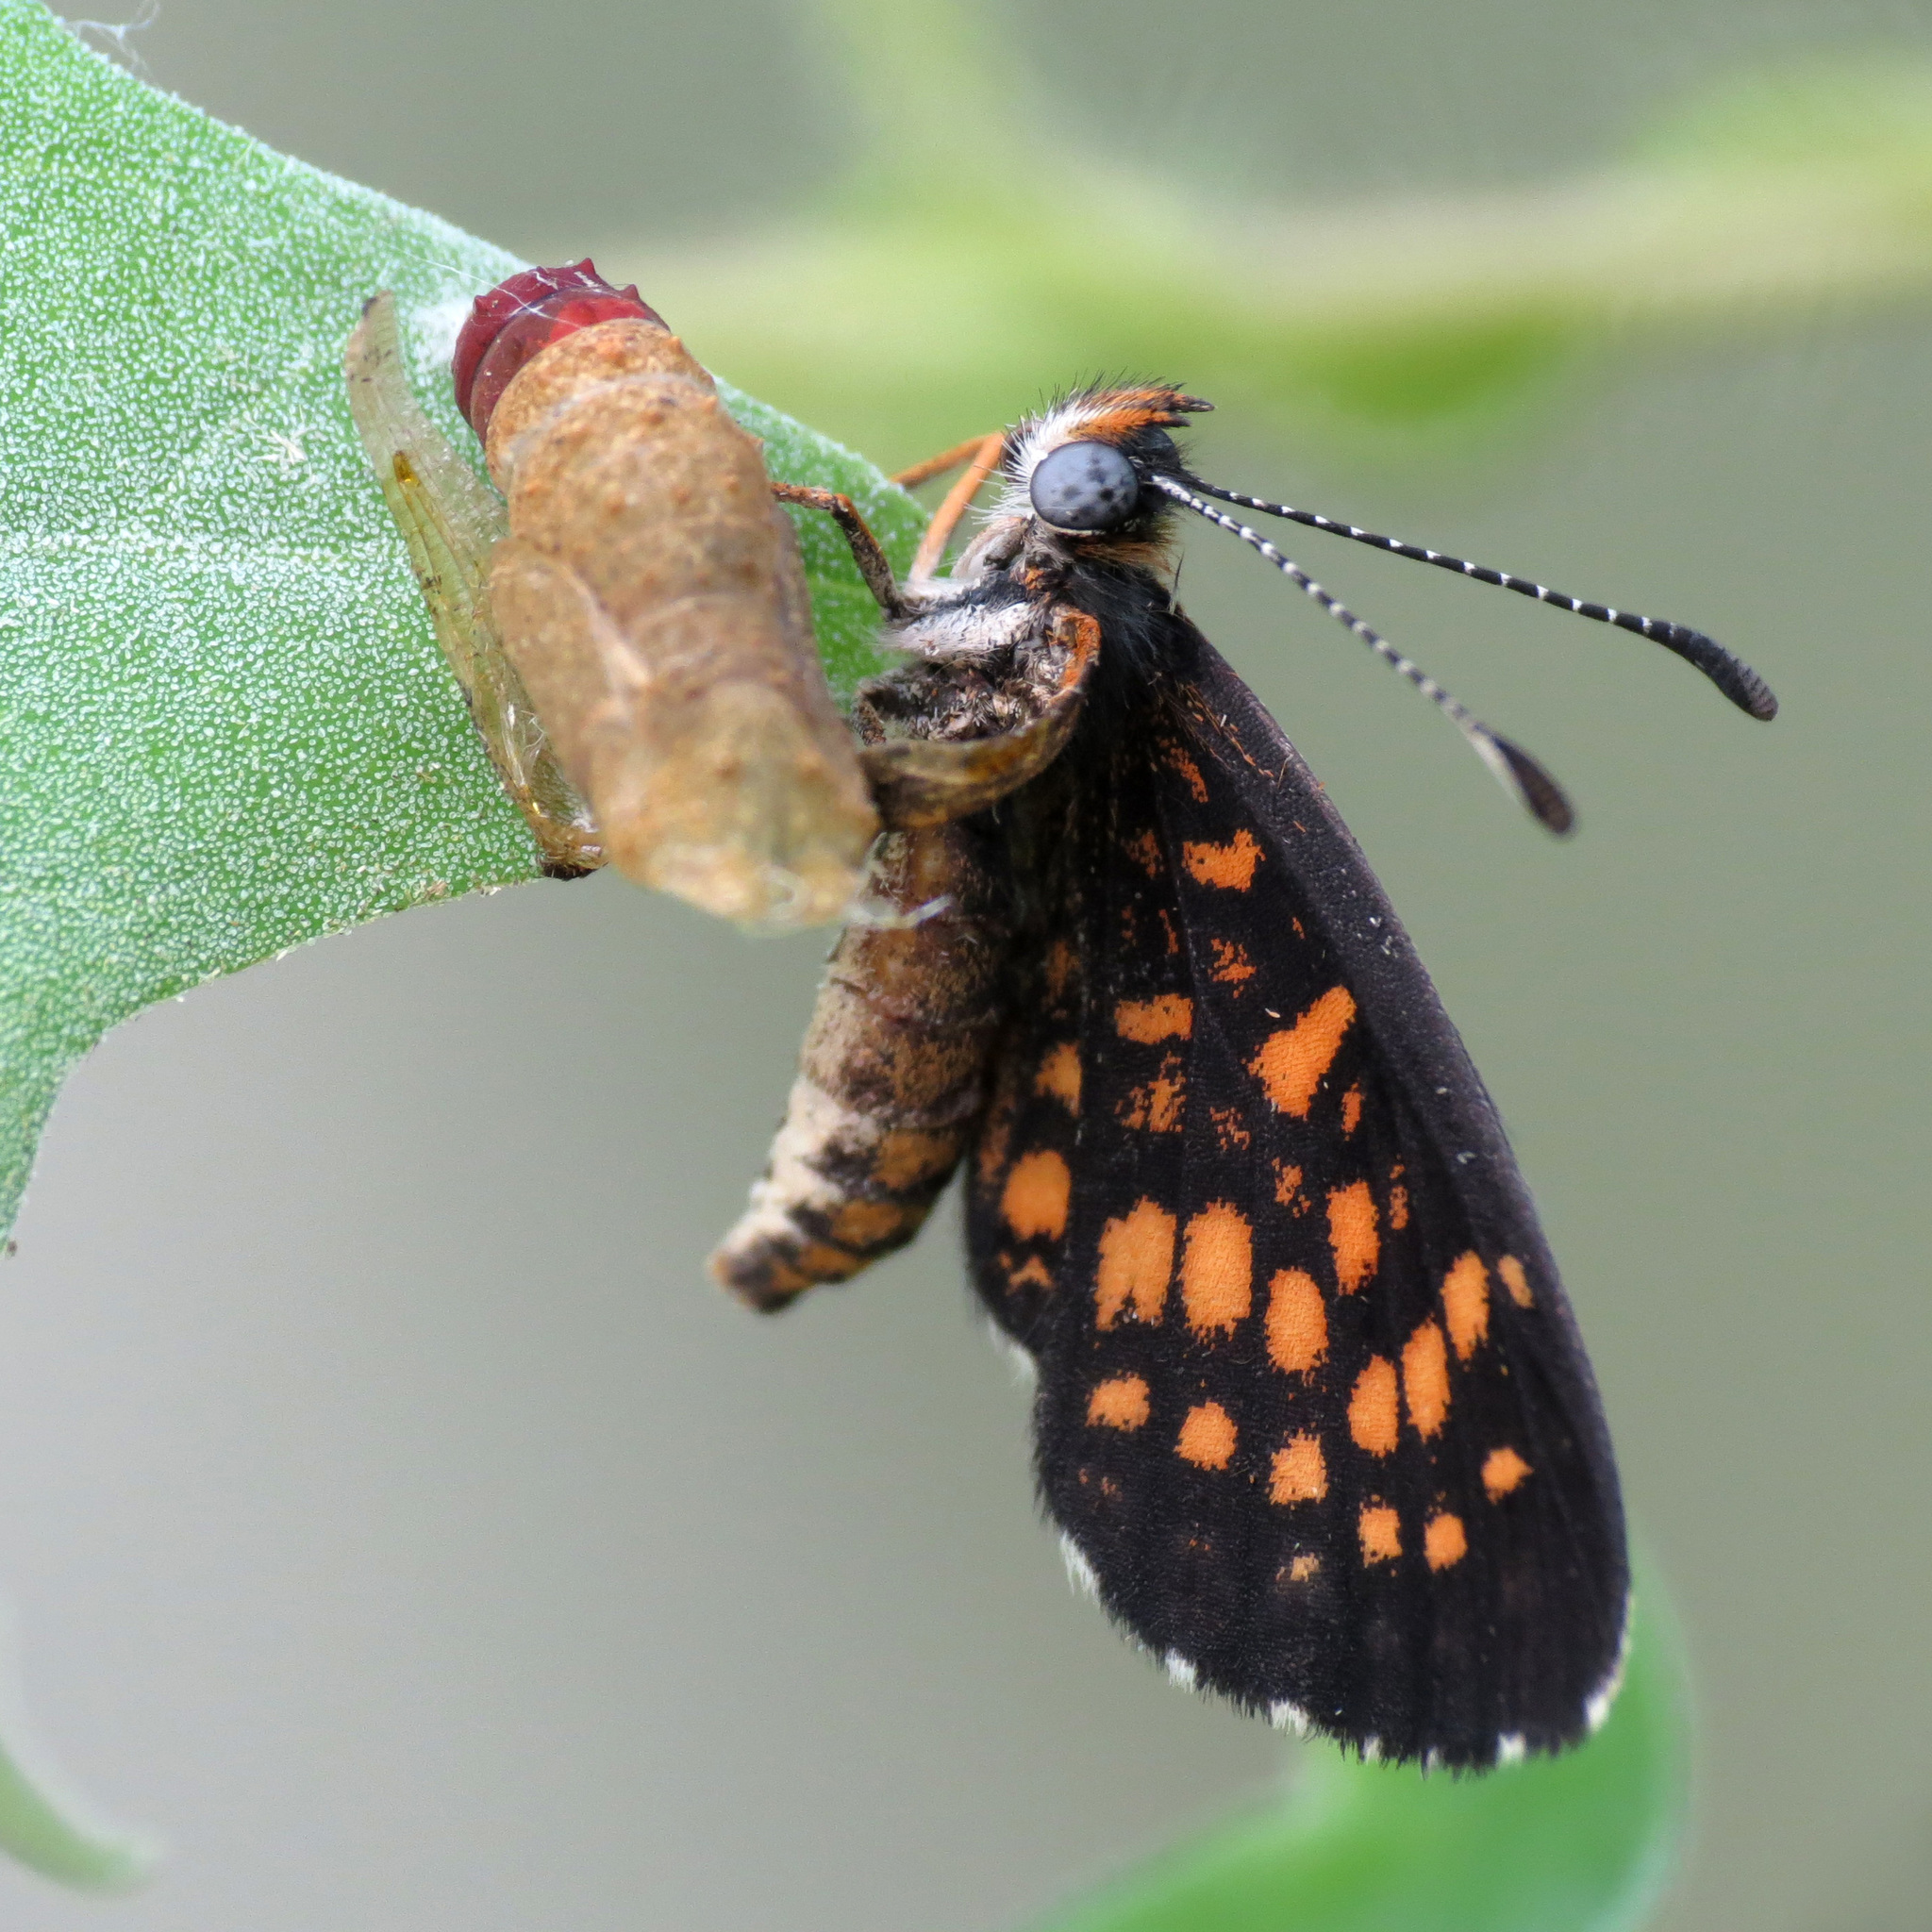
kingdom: Animalia
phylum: Arthropoda
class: Insecta
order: Lepidoptera
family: Nymphalidae
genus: Texola
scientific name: Texola
